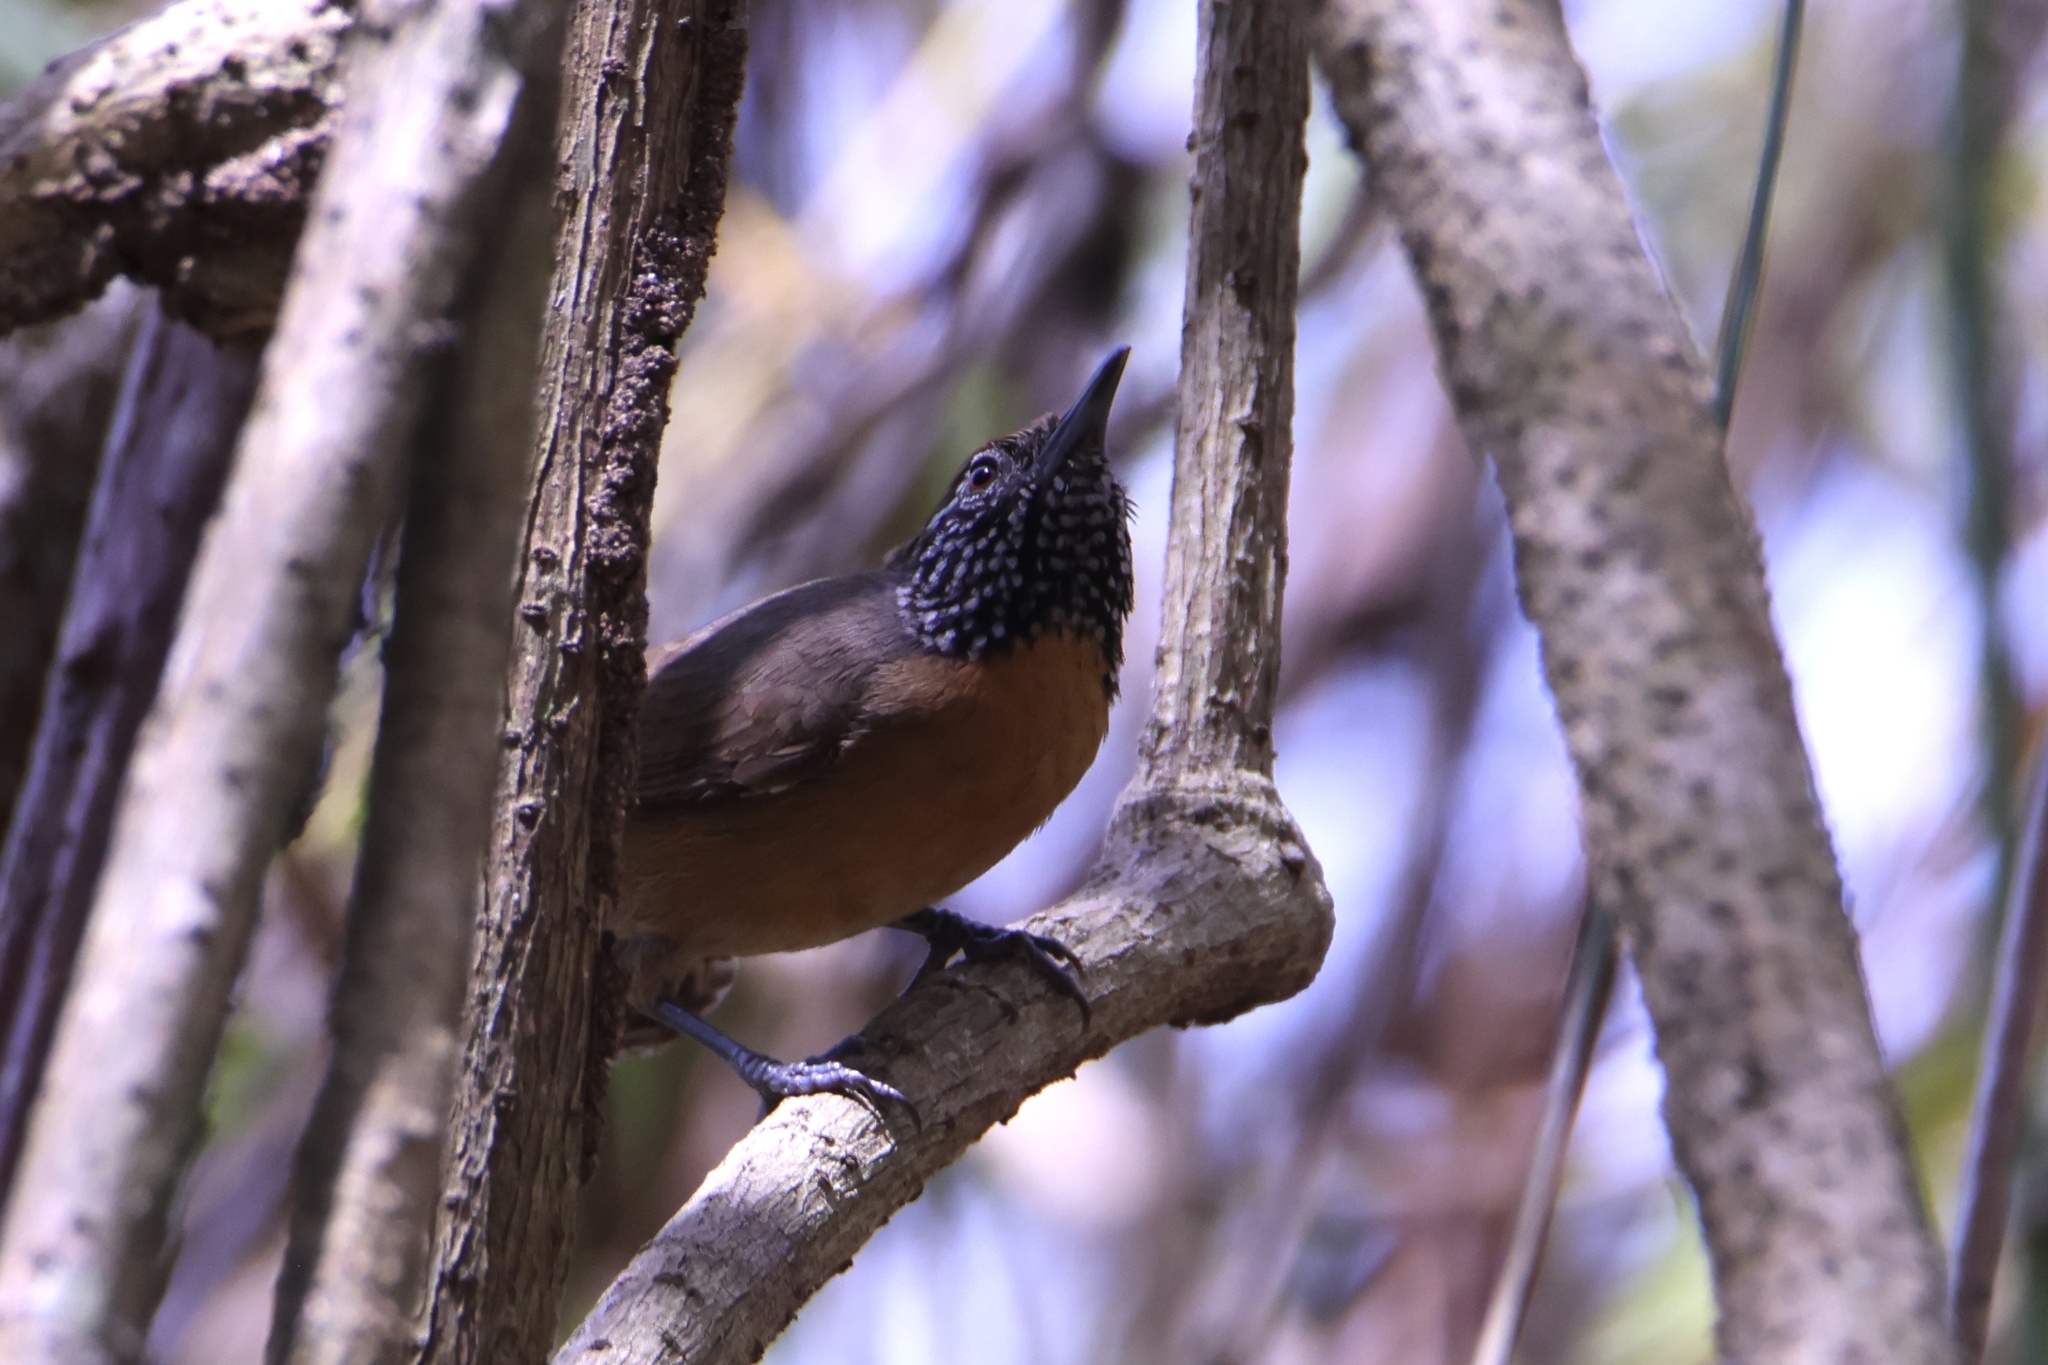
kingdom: Animalia
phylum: Chordata
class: Aves
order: Passeriformes
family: Troglodytidae
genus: Pheugopedius
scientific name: Pheugopedius rutilus
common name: Rufous-breasted wren
